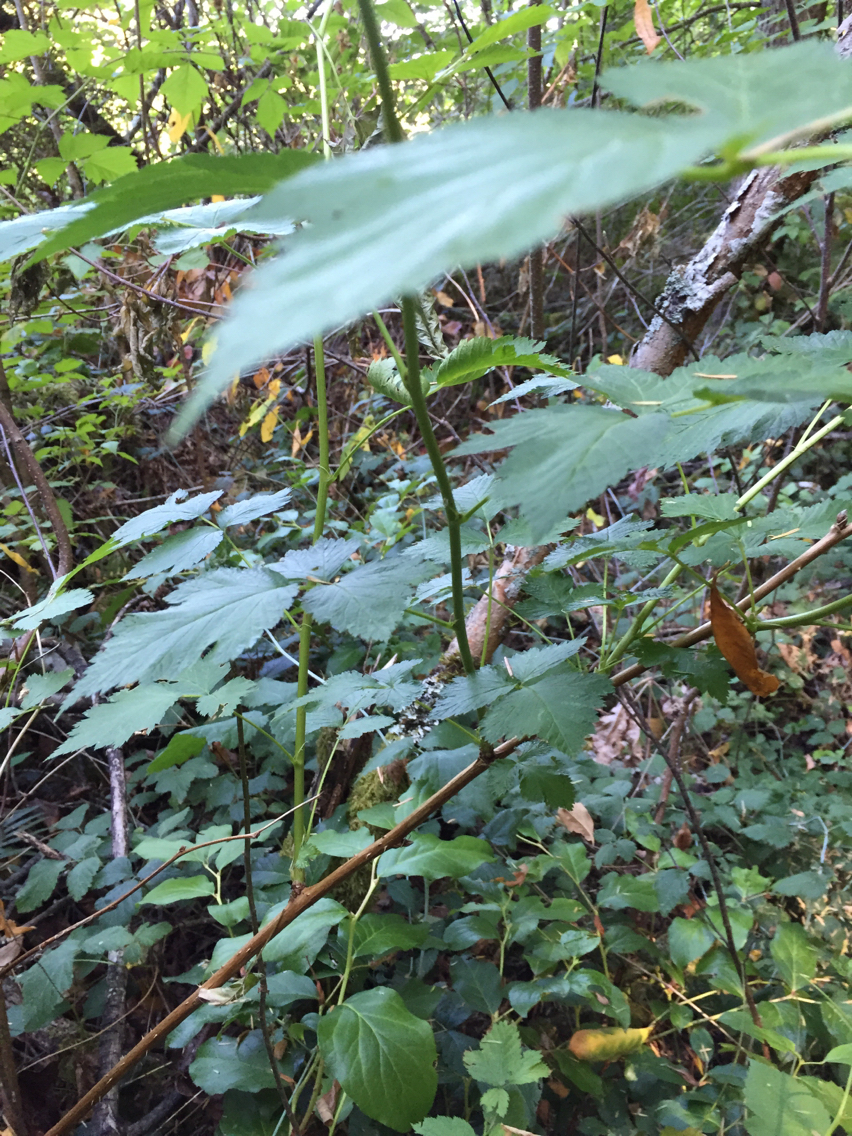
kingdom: Plantae
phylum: Tracheophyta
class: Magnoliopsida
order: Rosales
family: Rosaceae
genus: Rubus
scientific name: Rubus spectabilis
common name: Salmonberry
